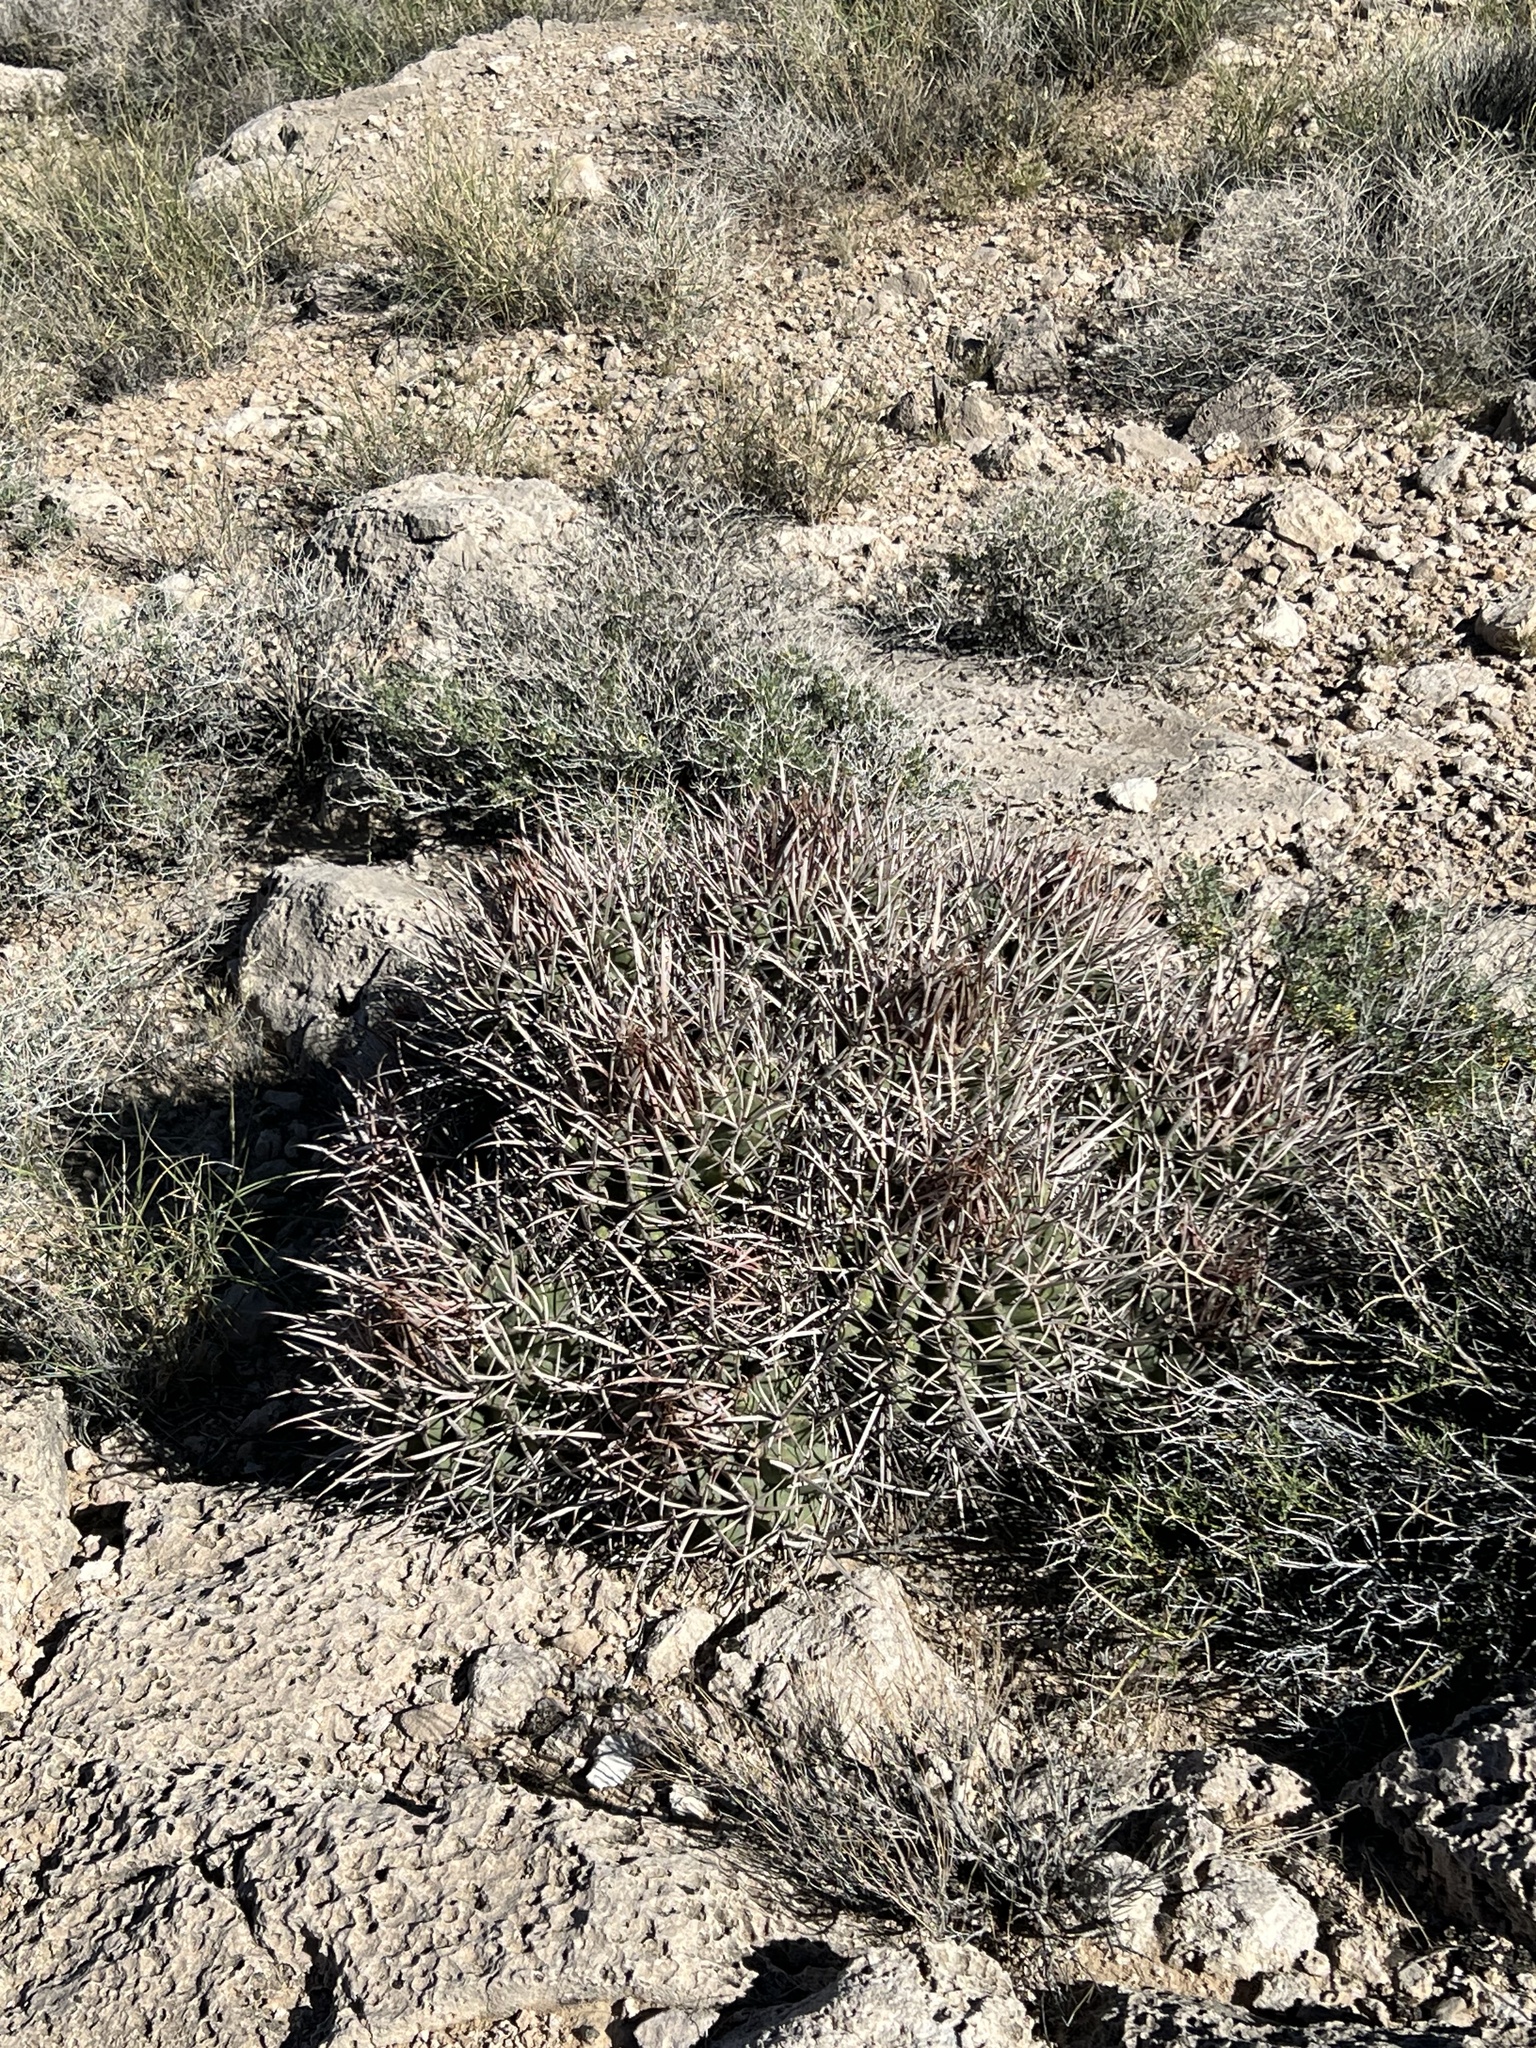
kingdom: Plantae
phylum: Tracheophyta
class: Magnoliopsida
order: Caryophyllales
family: Cactaceae
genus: Echinocactus
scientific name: Echinocactus polycephalus
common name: Cottontop cactus
